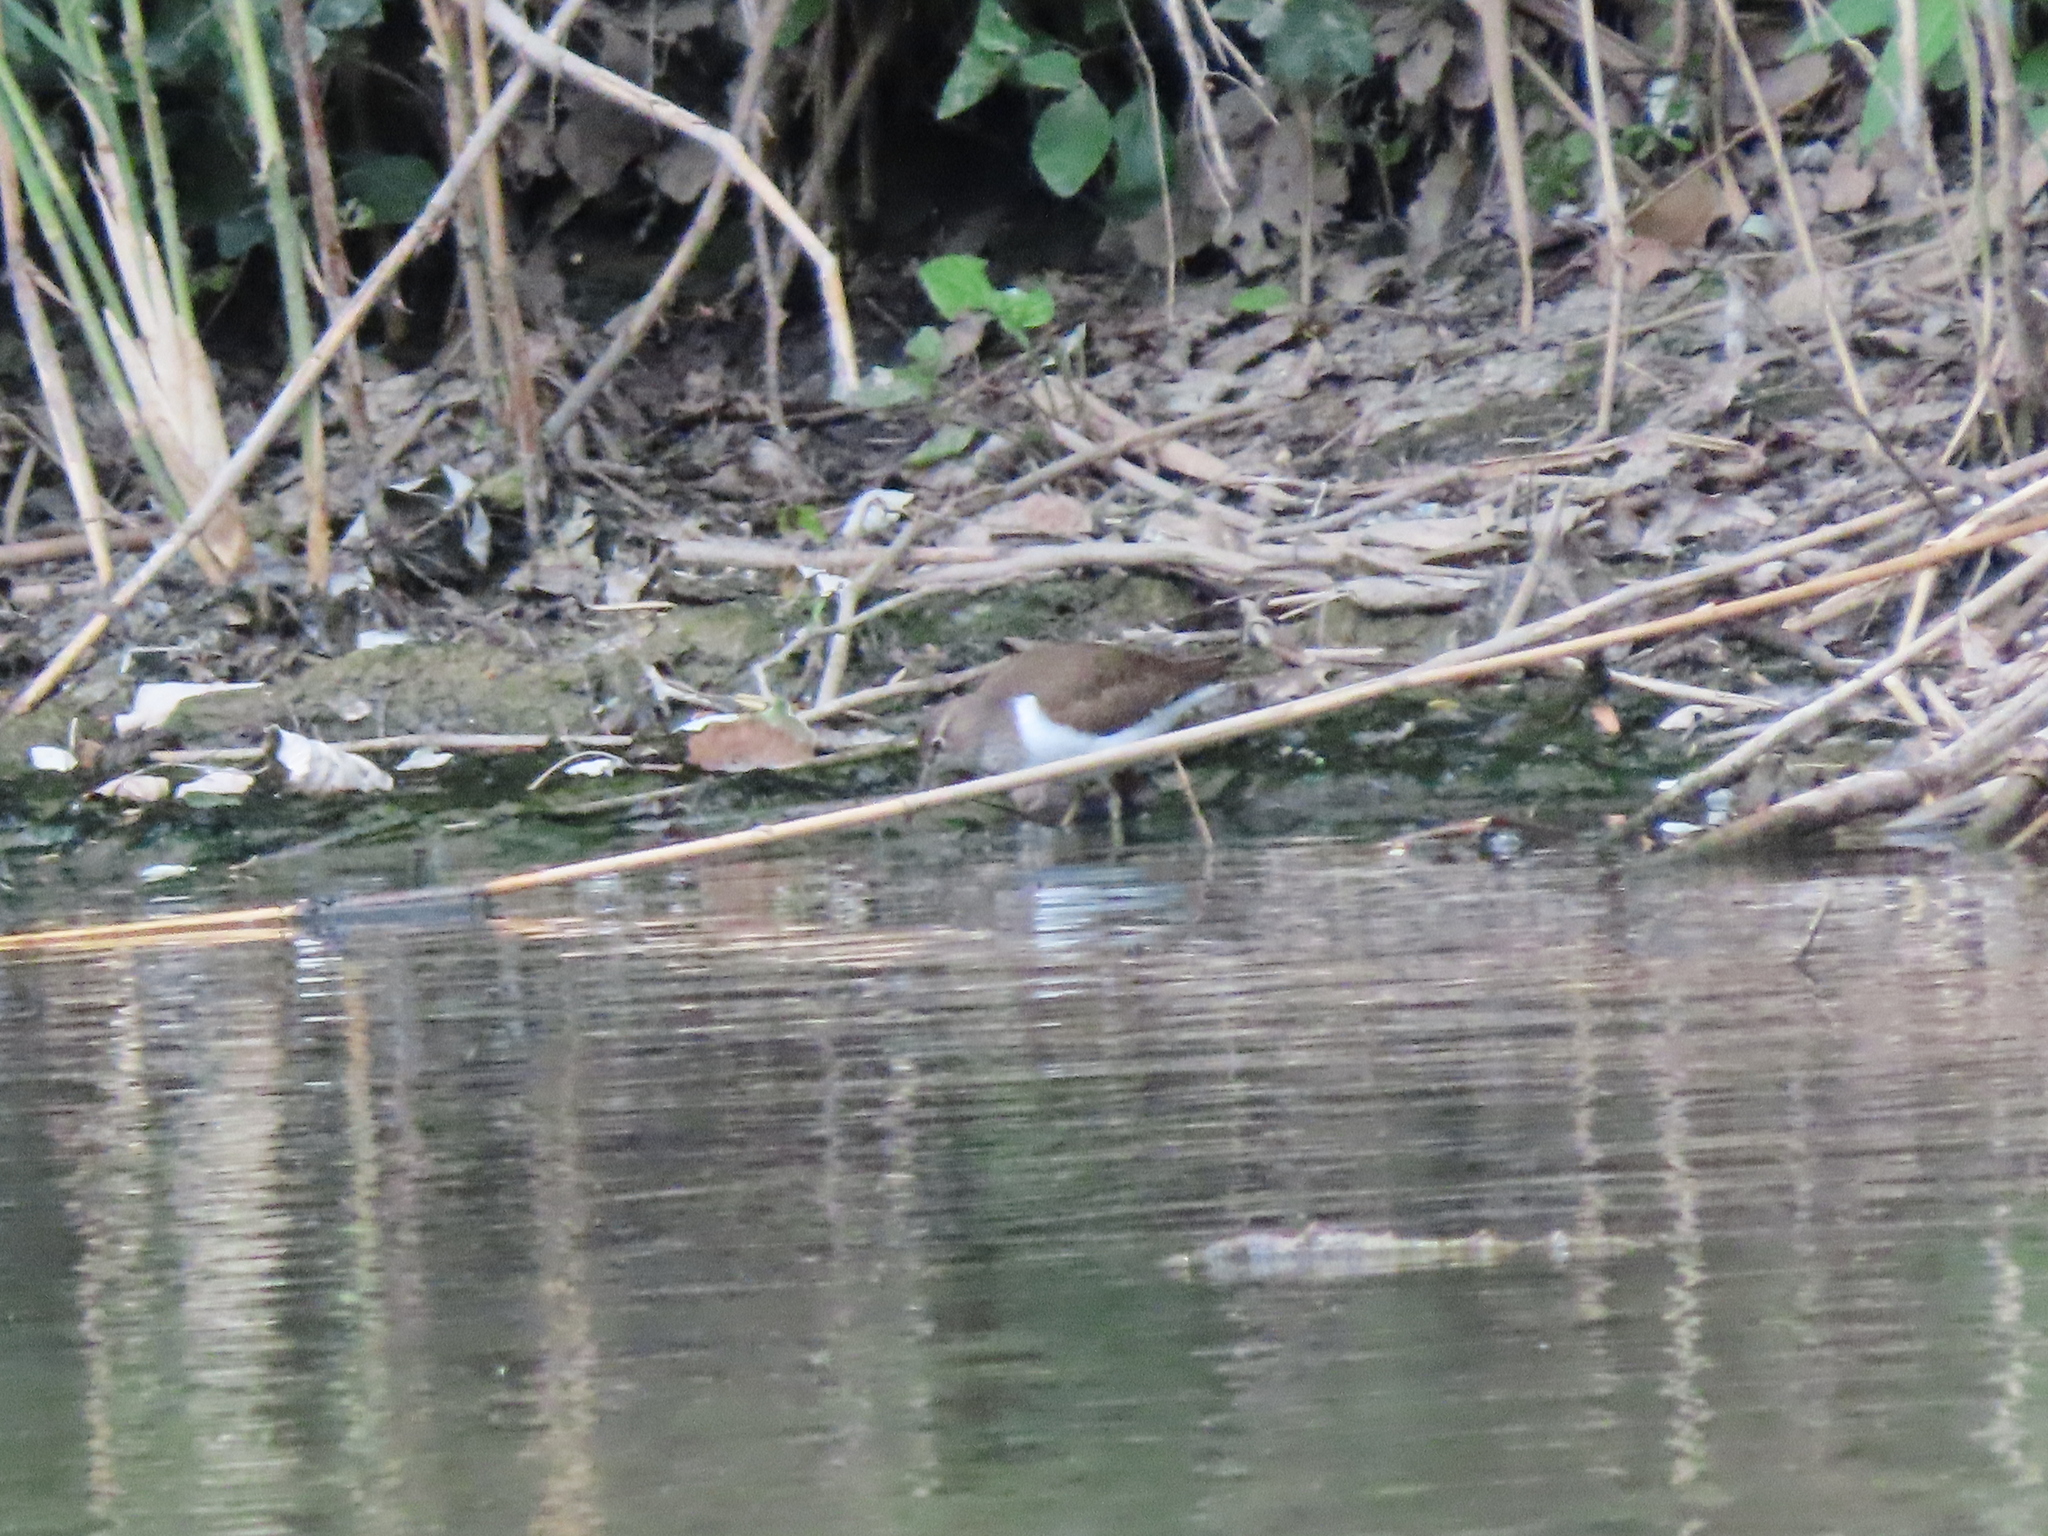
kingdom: Animalia
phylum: Chordata
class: Aves
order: Charadriiformes
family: Scolopacidae
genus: Actitis
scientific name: Actitis hypoleucos
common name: Common sandpiper
